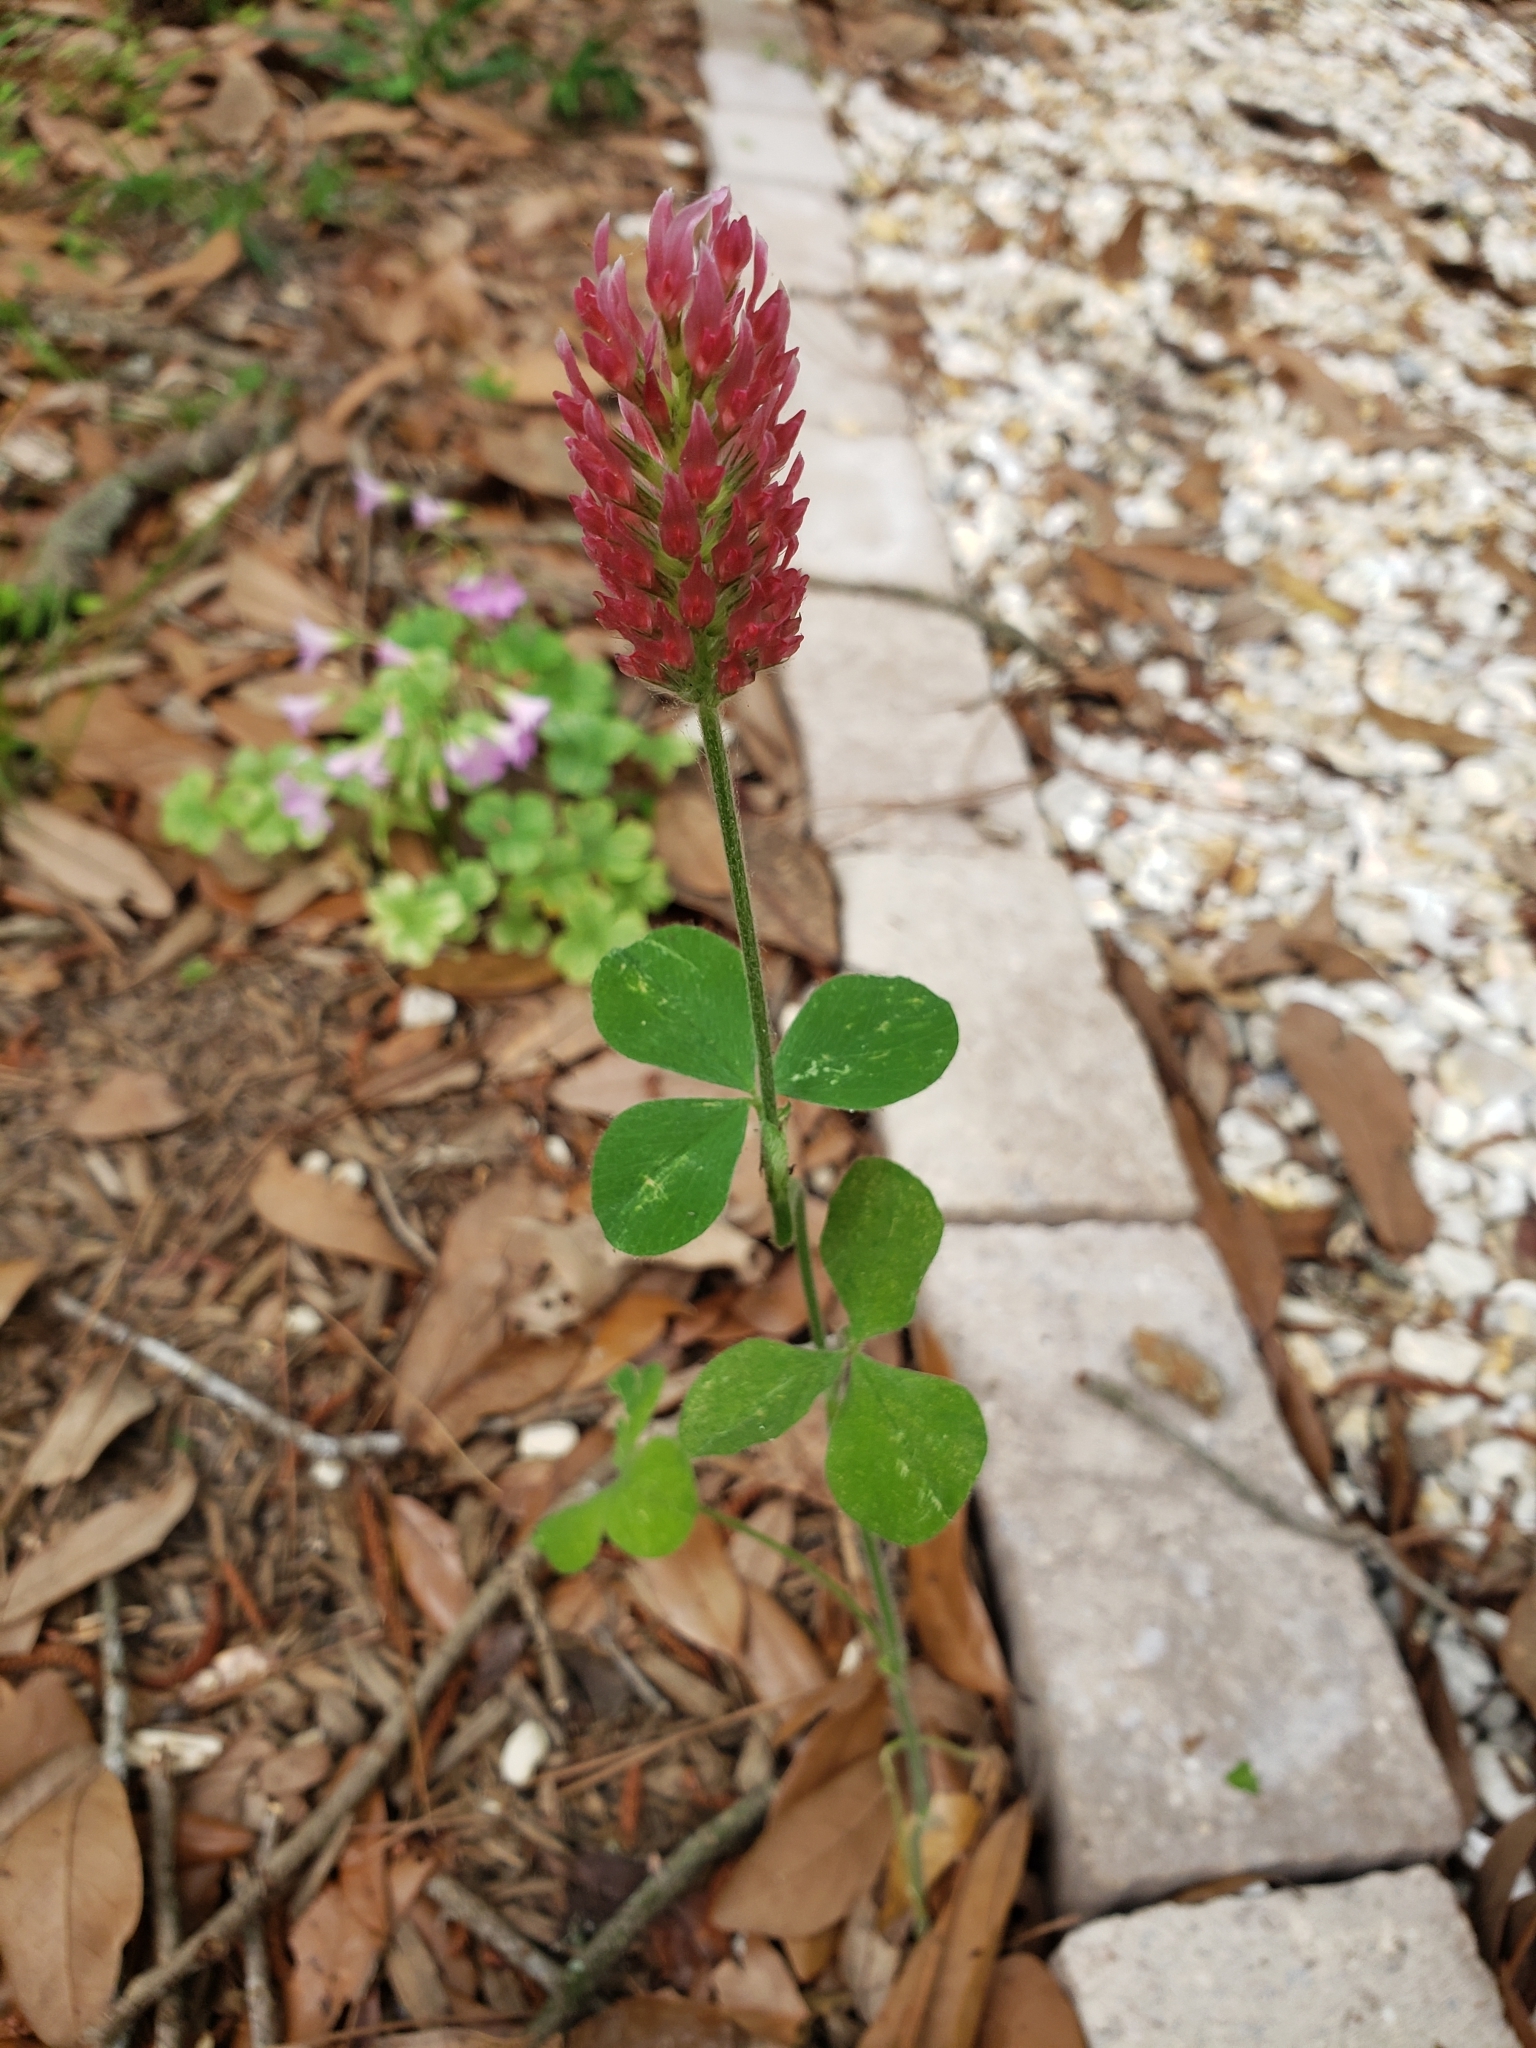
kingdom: Plantae
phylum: Tracheophyta
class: Magnoliopsida
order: Fabales
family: Fabaceae
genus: Trifolium
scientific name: Trifolium incarnatum
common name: Crimson clover
